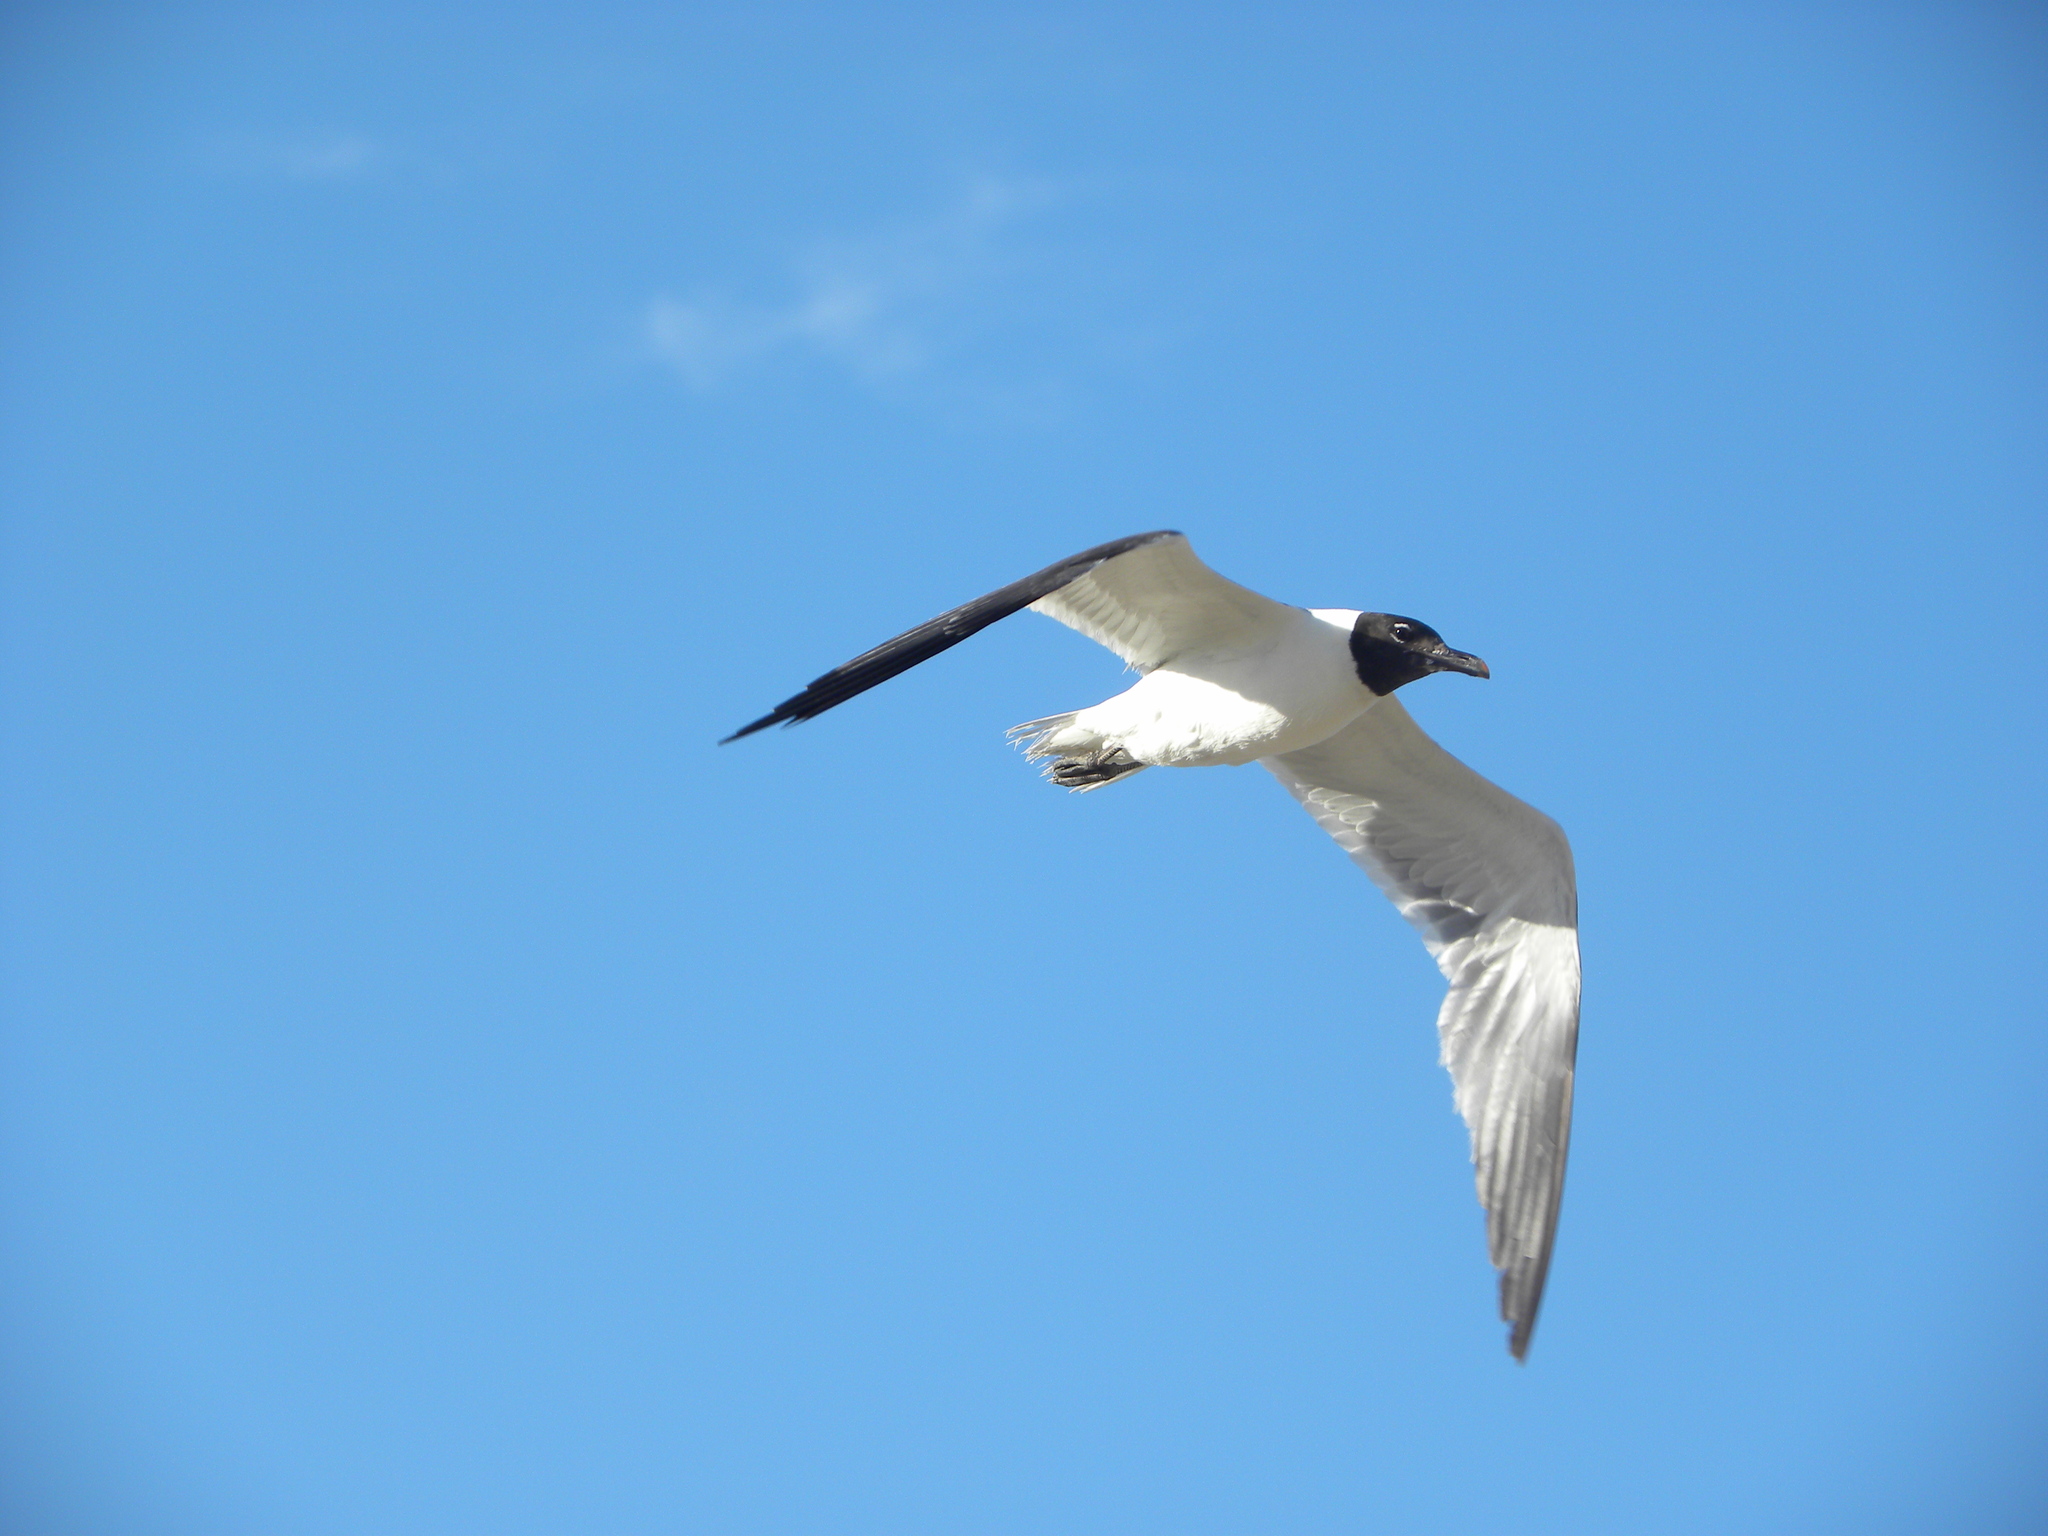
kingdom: Animalia
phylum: Chordata
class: Aves
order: Charadriiformes
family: Laridae
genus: Leucophaeus
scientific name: Leucophaeus atricilla
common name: Laughing gull
